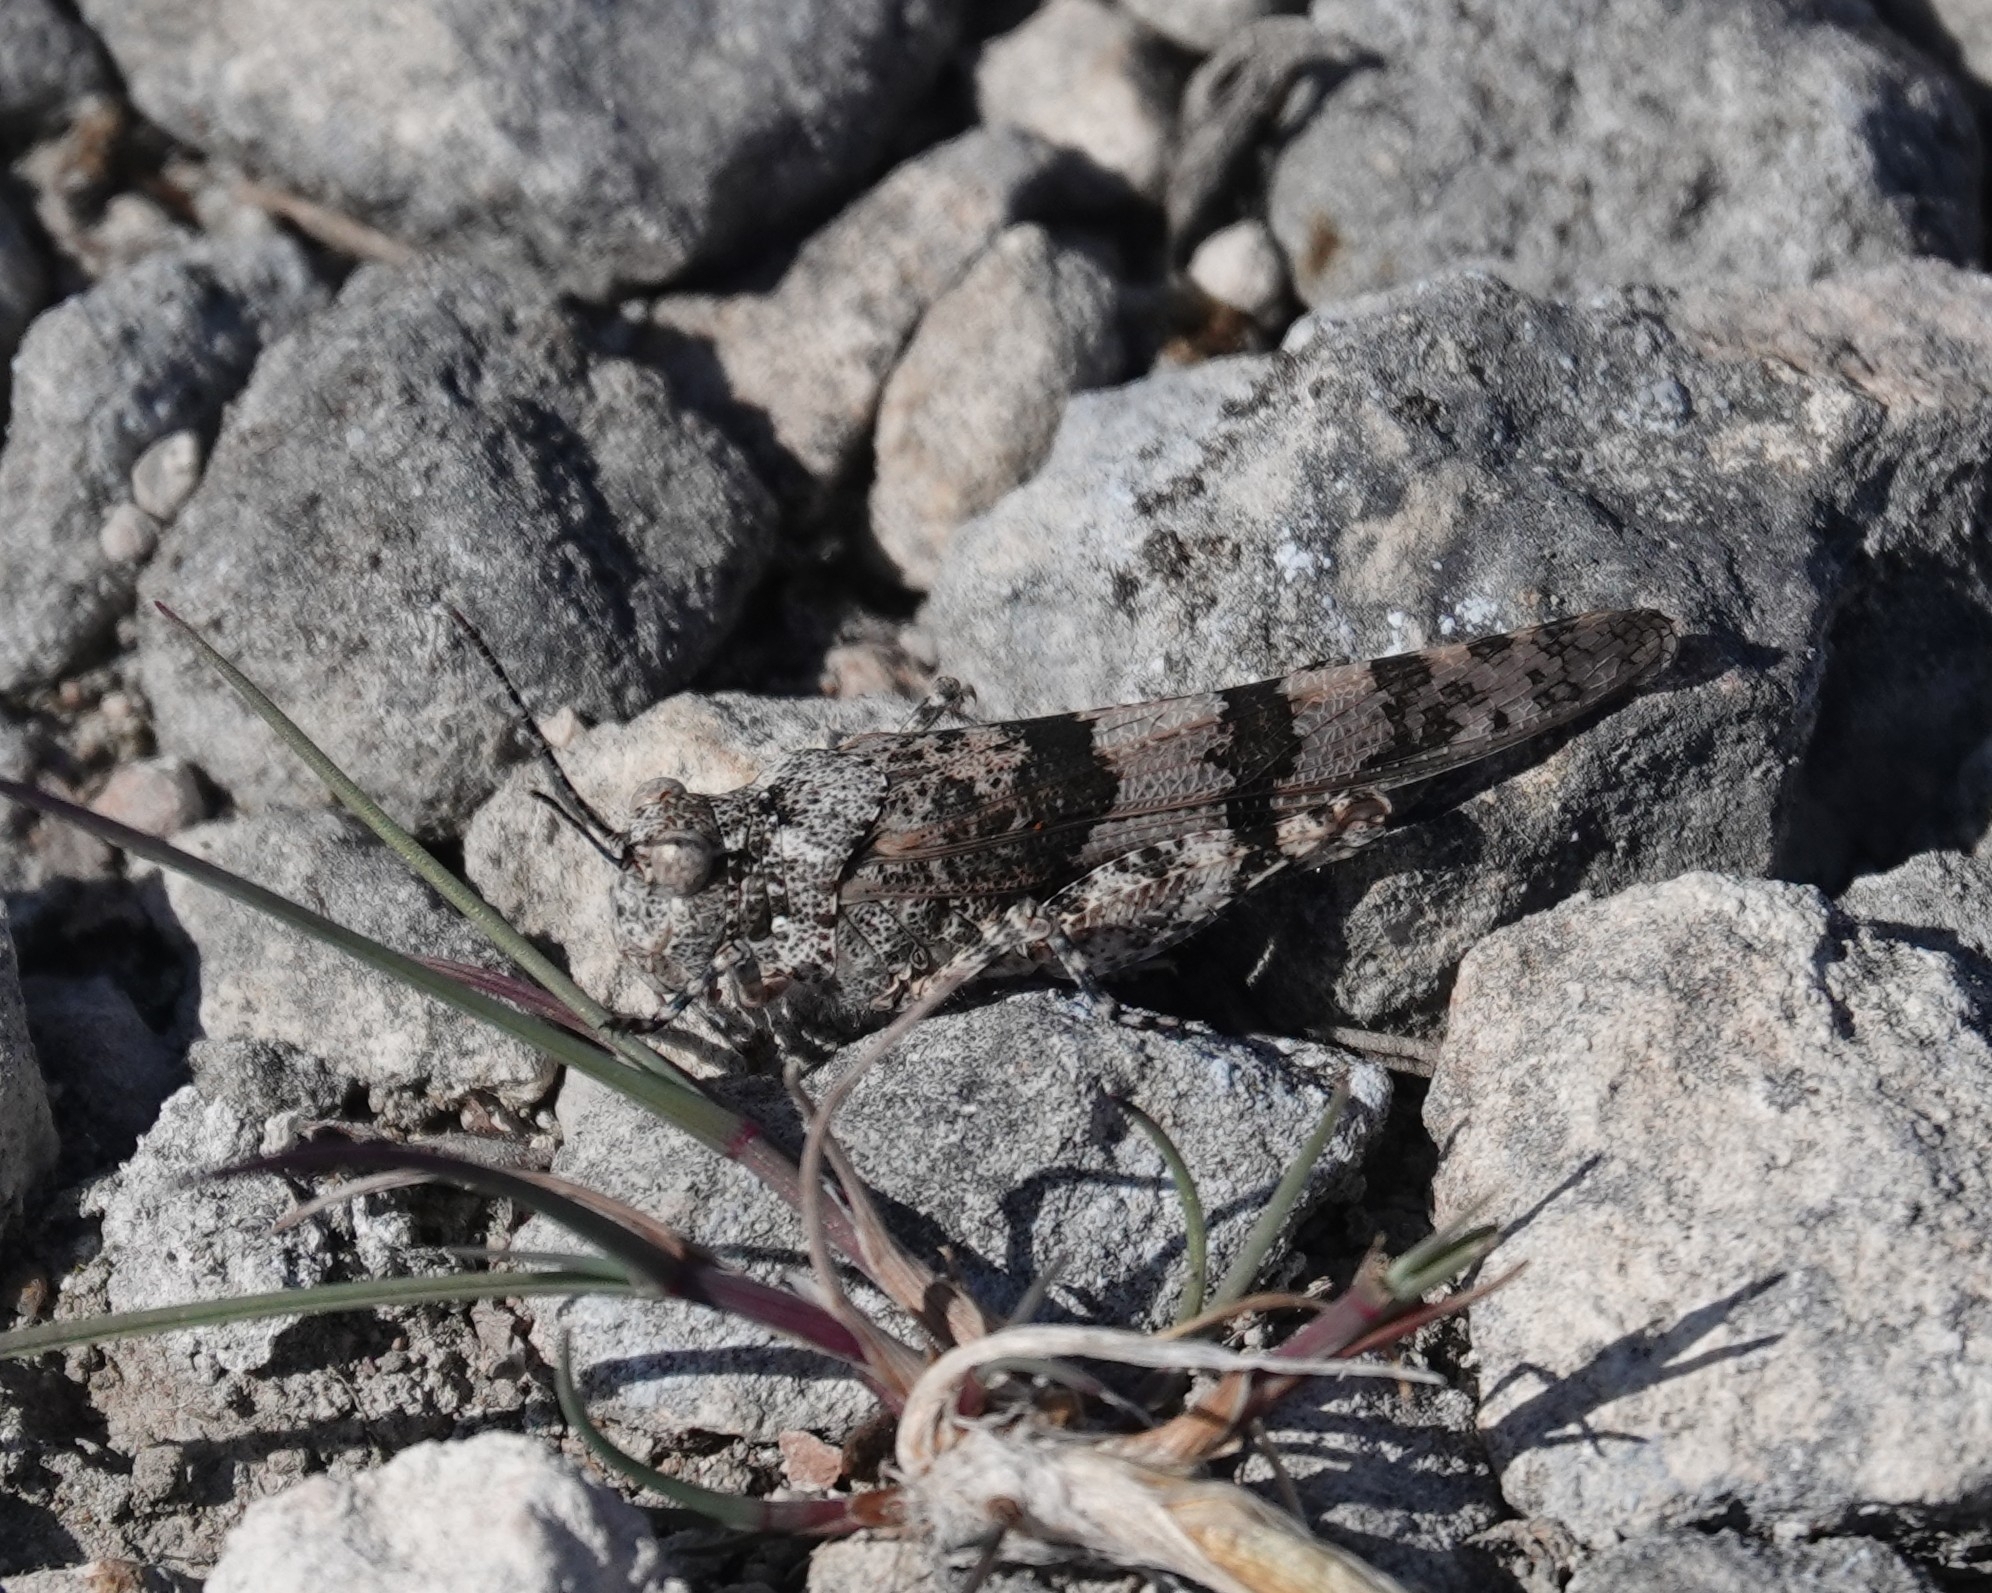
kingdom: Animalia
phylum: Arthropoda
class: Insecta
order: Orthoptera
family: Acrididae
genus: Sphingonotus
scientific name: Sphingonotus caerulans
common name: Blue-winged locust
